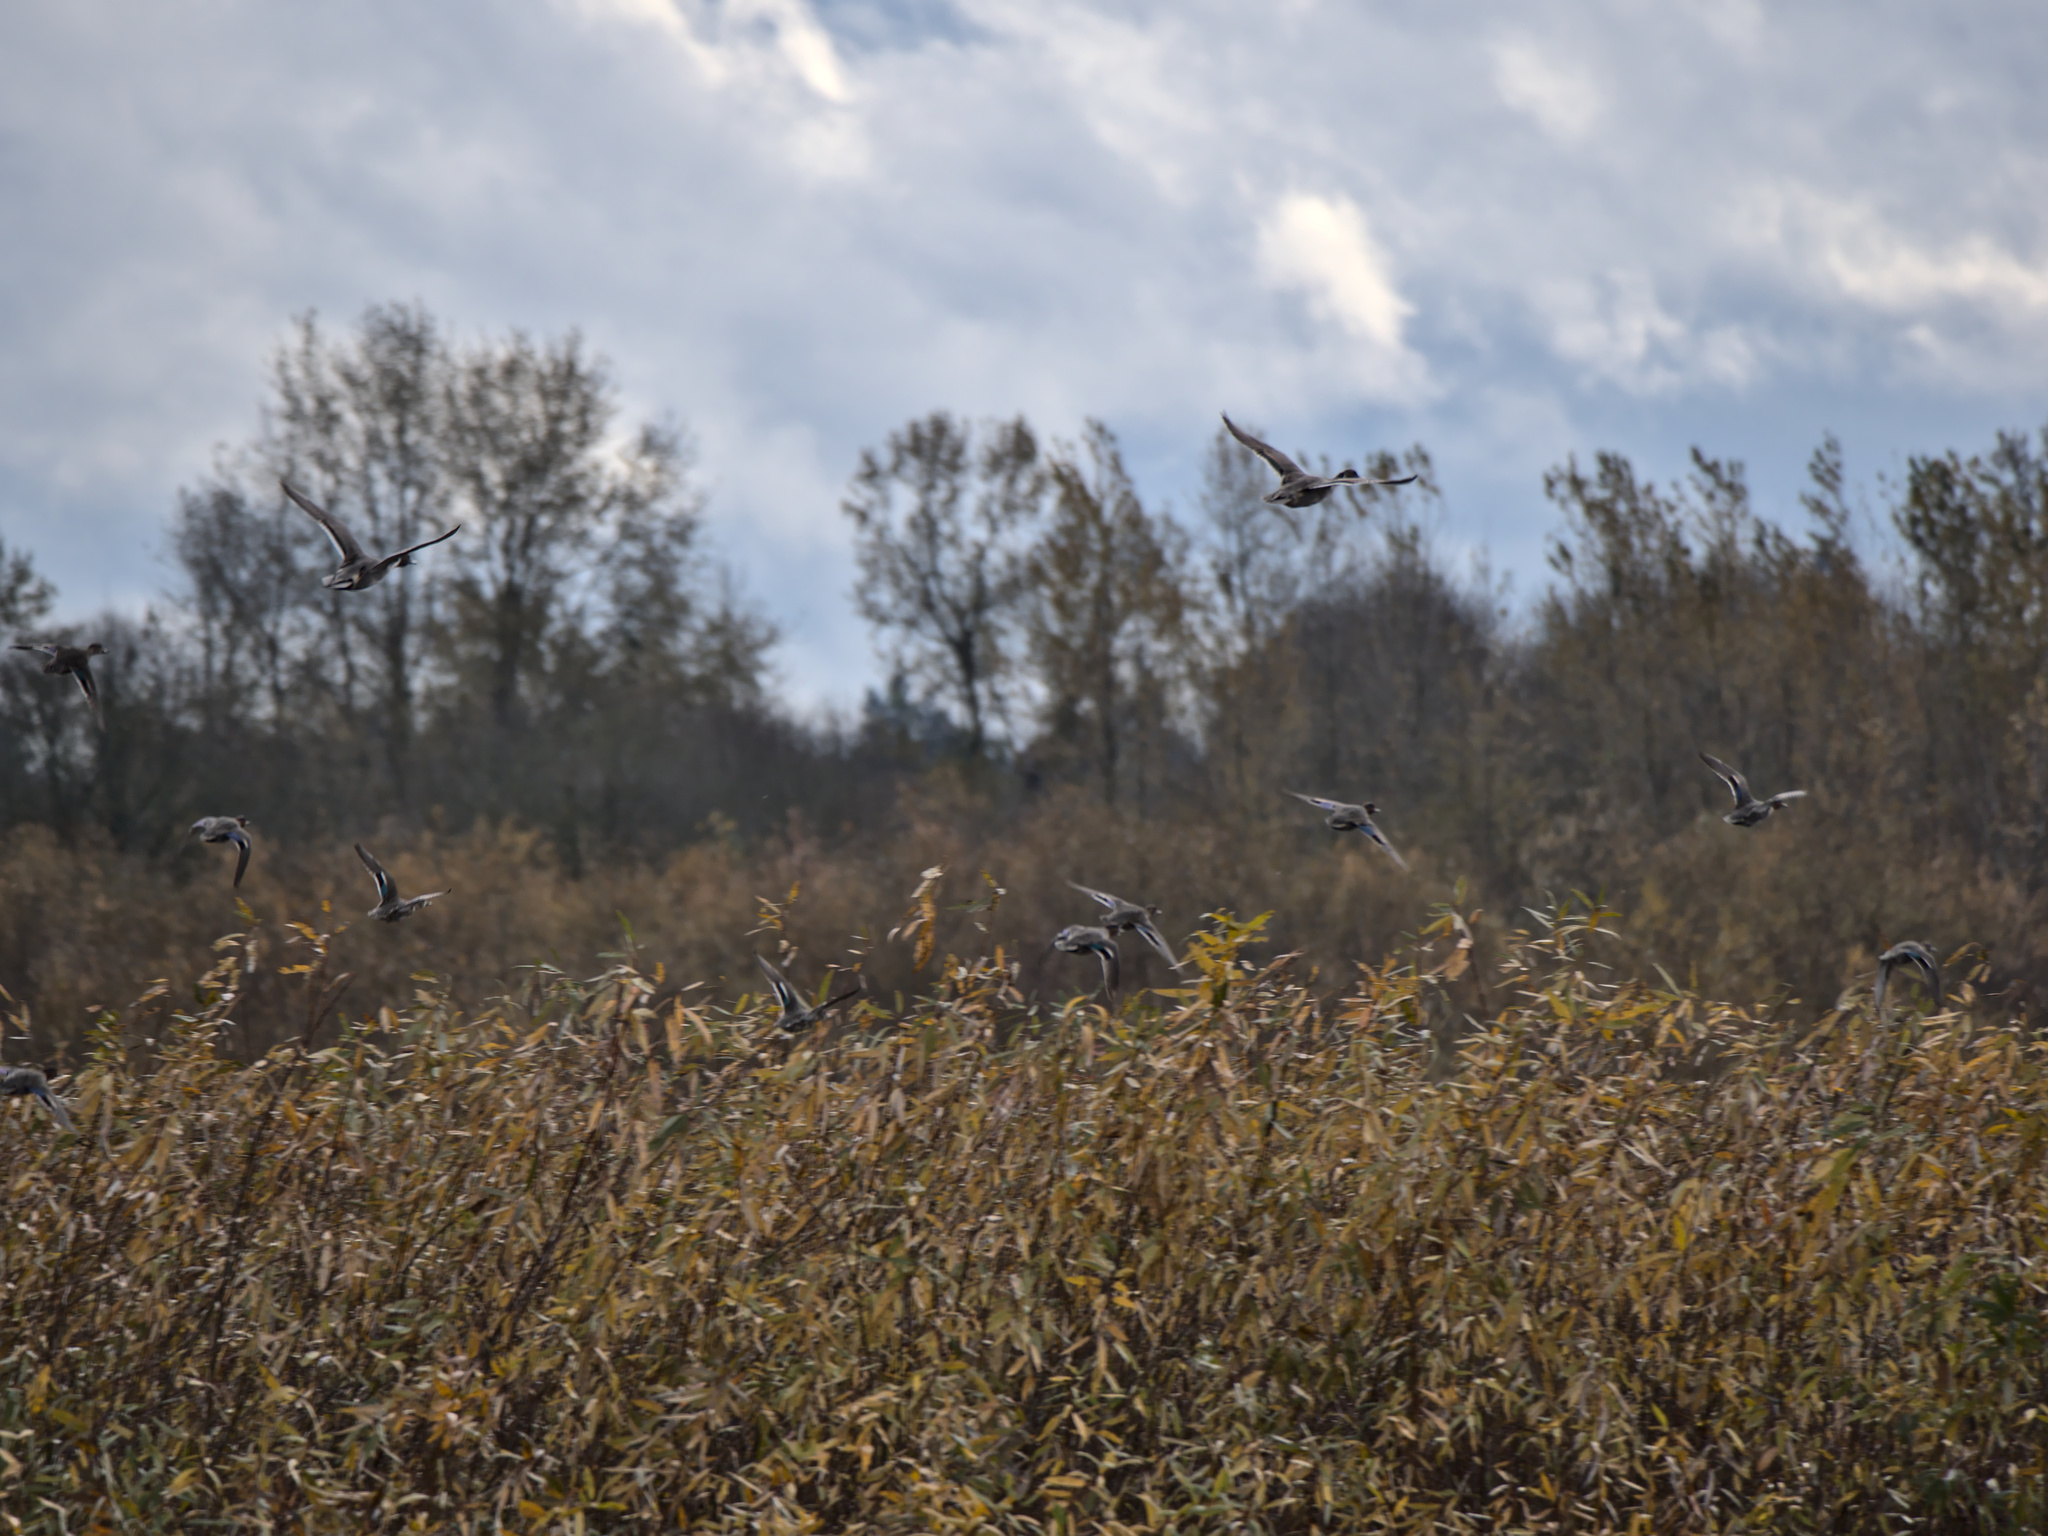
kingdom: Animalia
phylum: Chordata
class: Aves
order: Anseriformes
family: Anatidae
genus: Anas
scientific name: Anas crecca
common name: Eurasian teal
